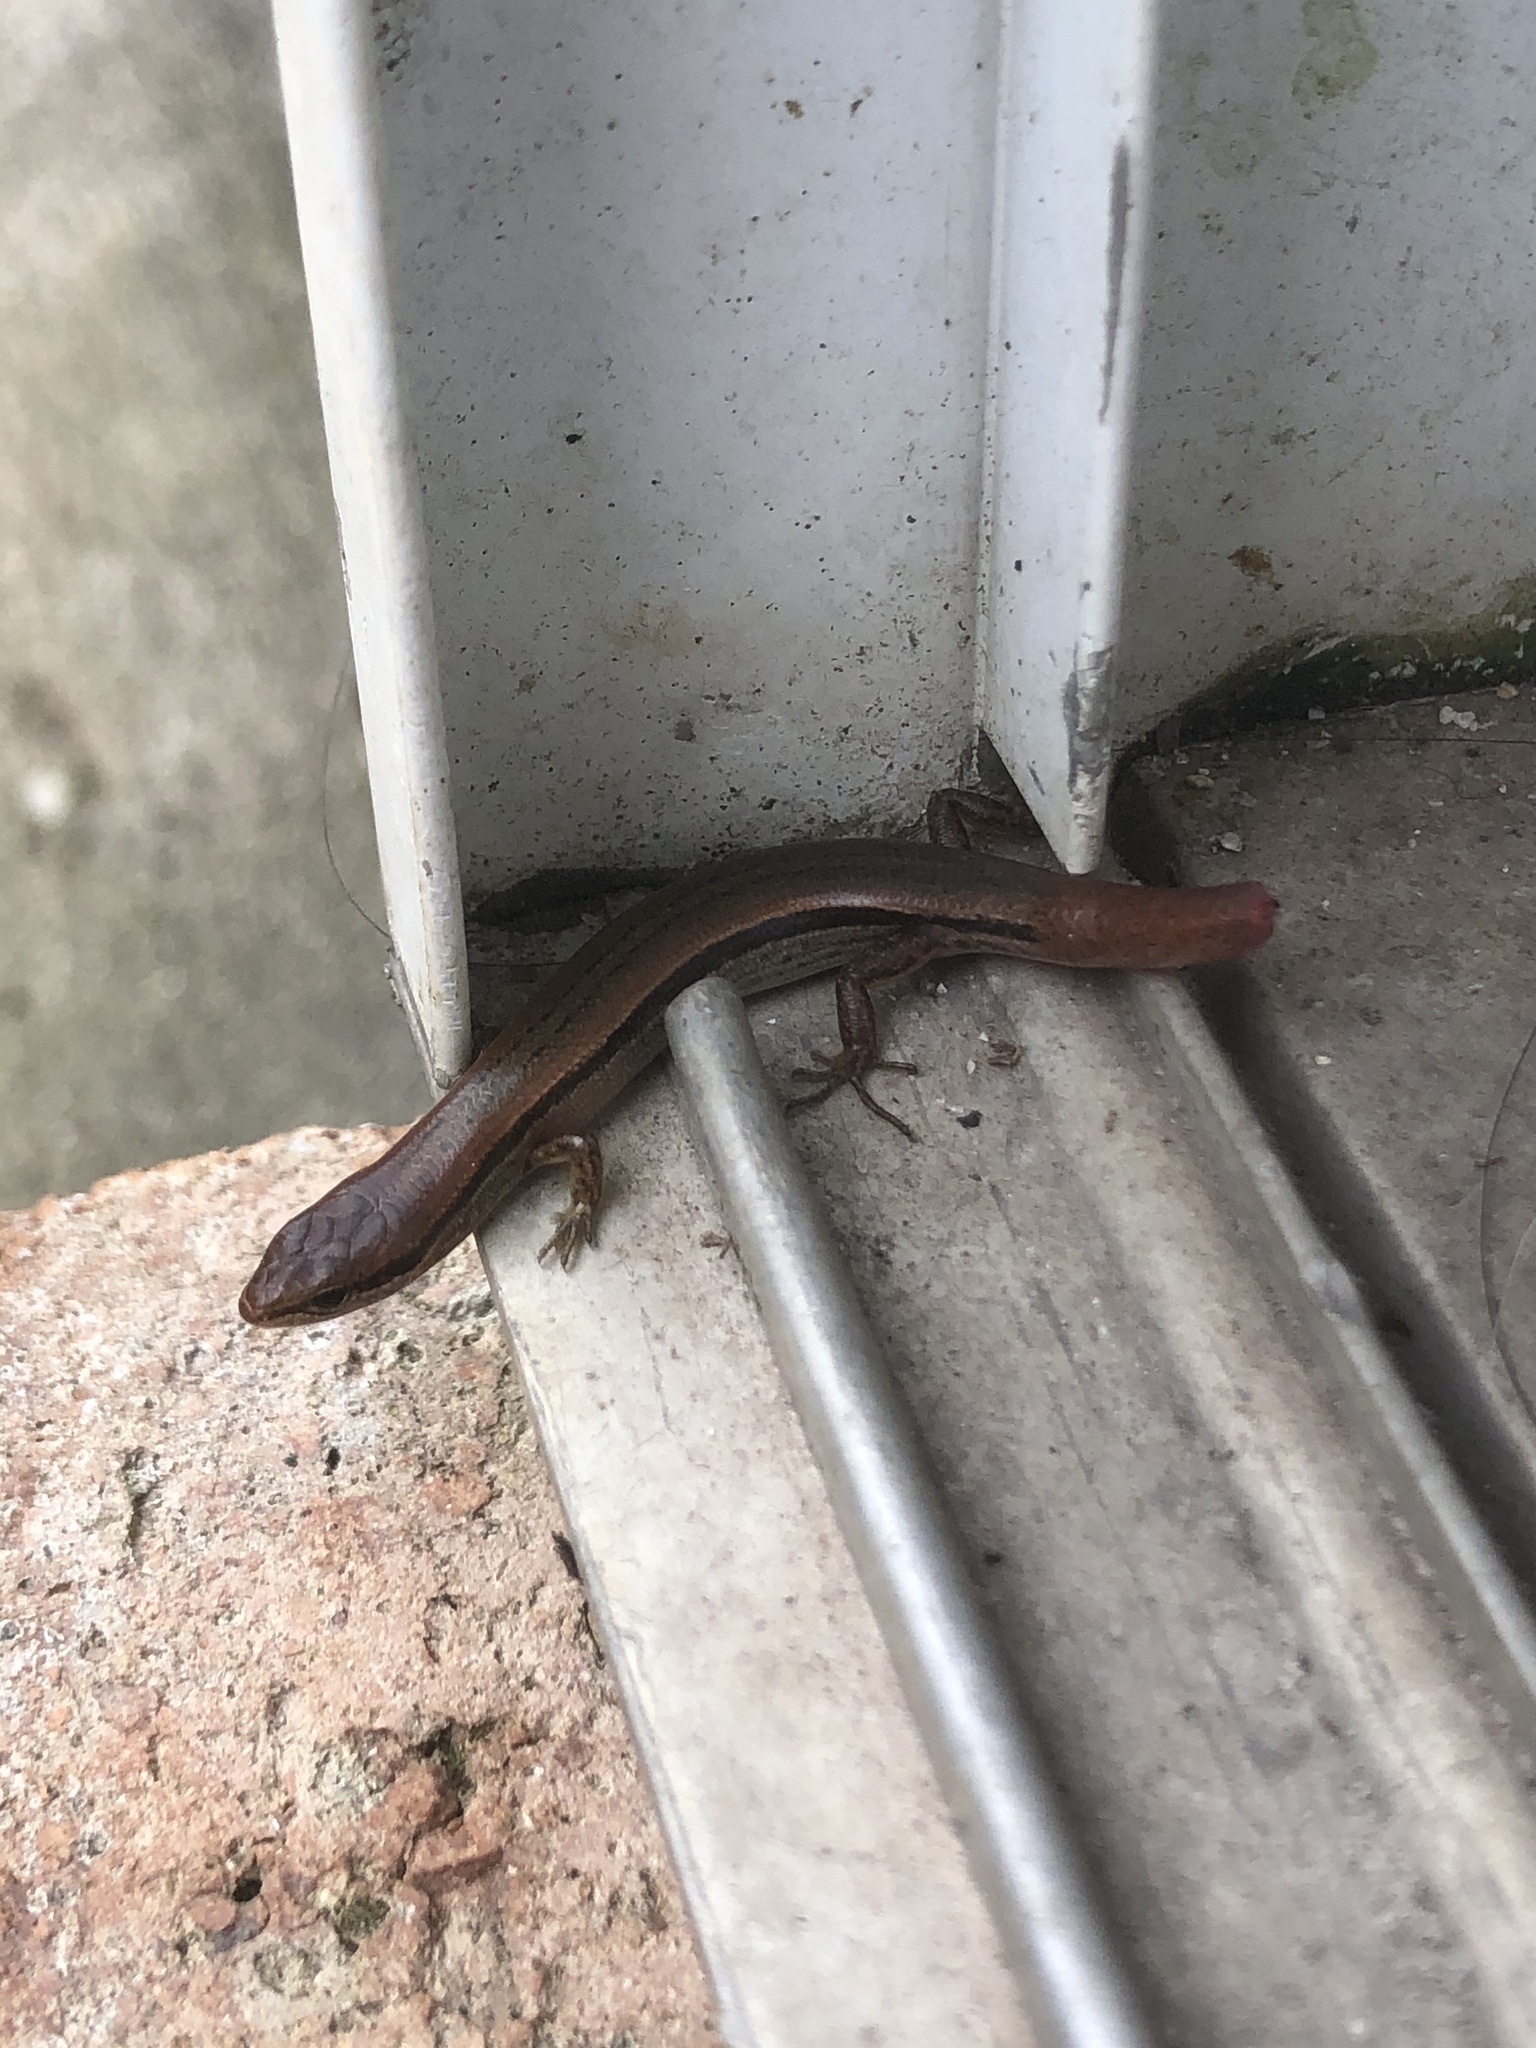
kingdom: Animalia
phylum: Chordata
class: Squamata
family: Scincidae
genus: Scincella
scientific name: Scincella lateralis
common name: Ground skink
